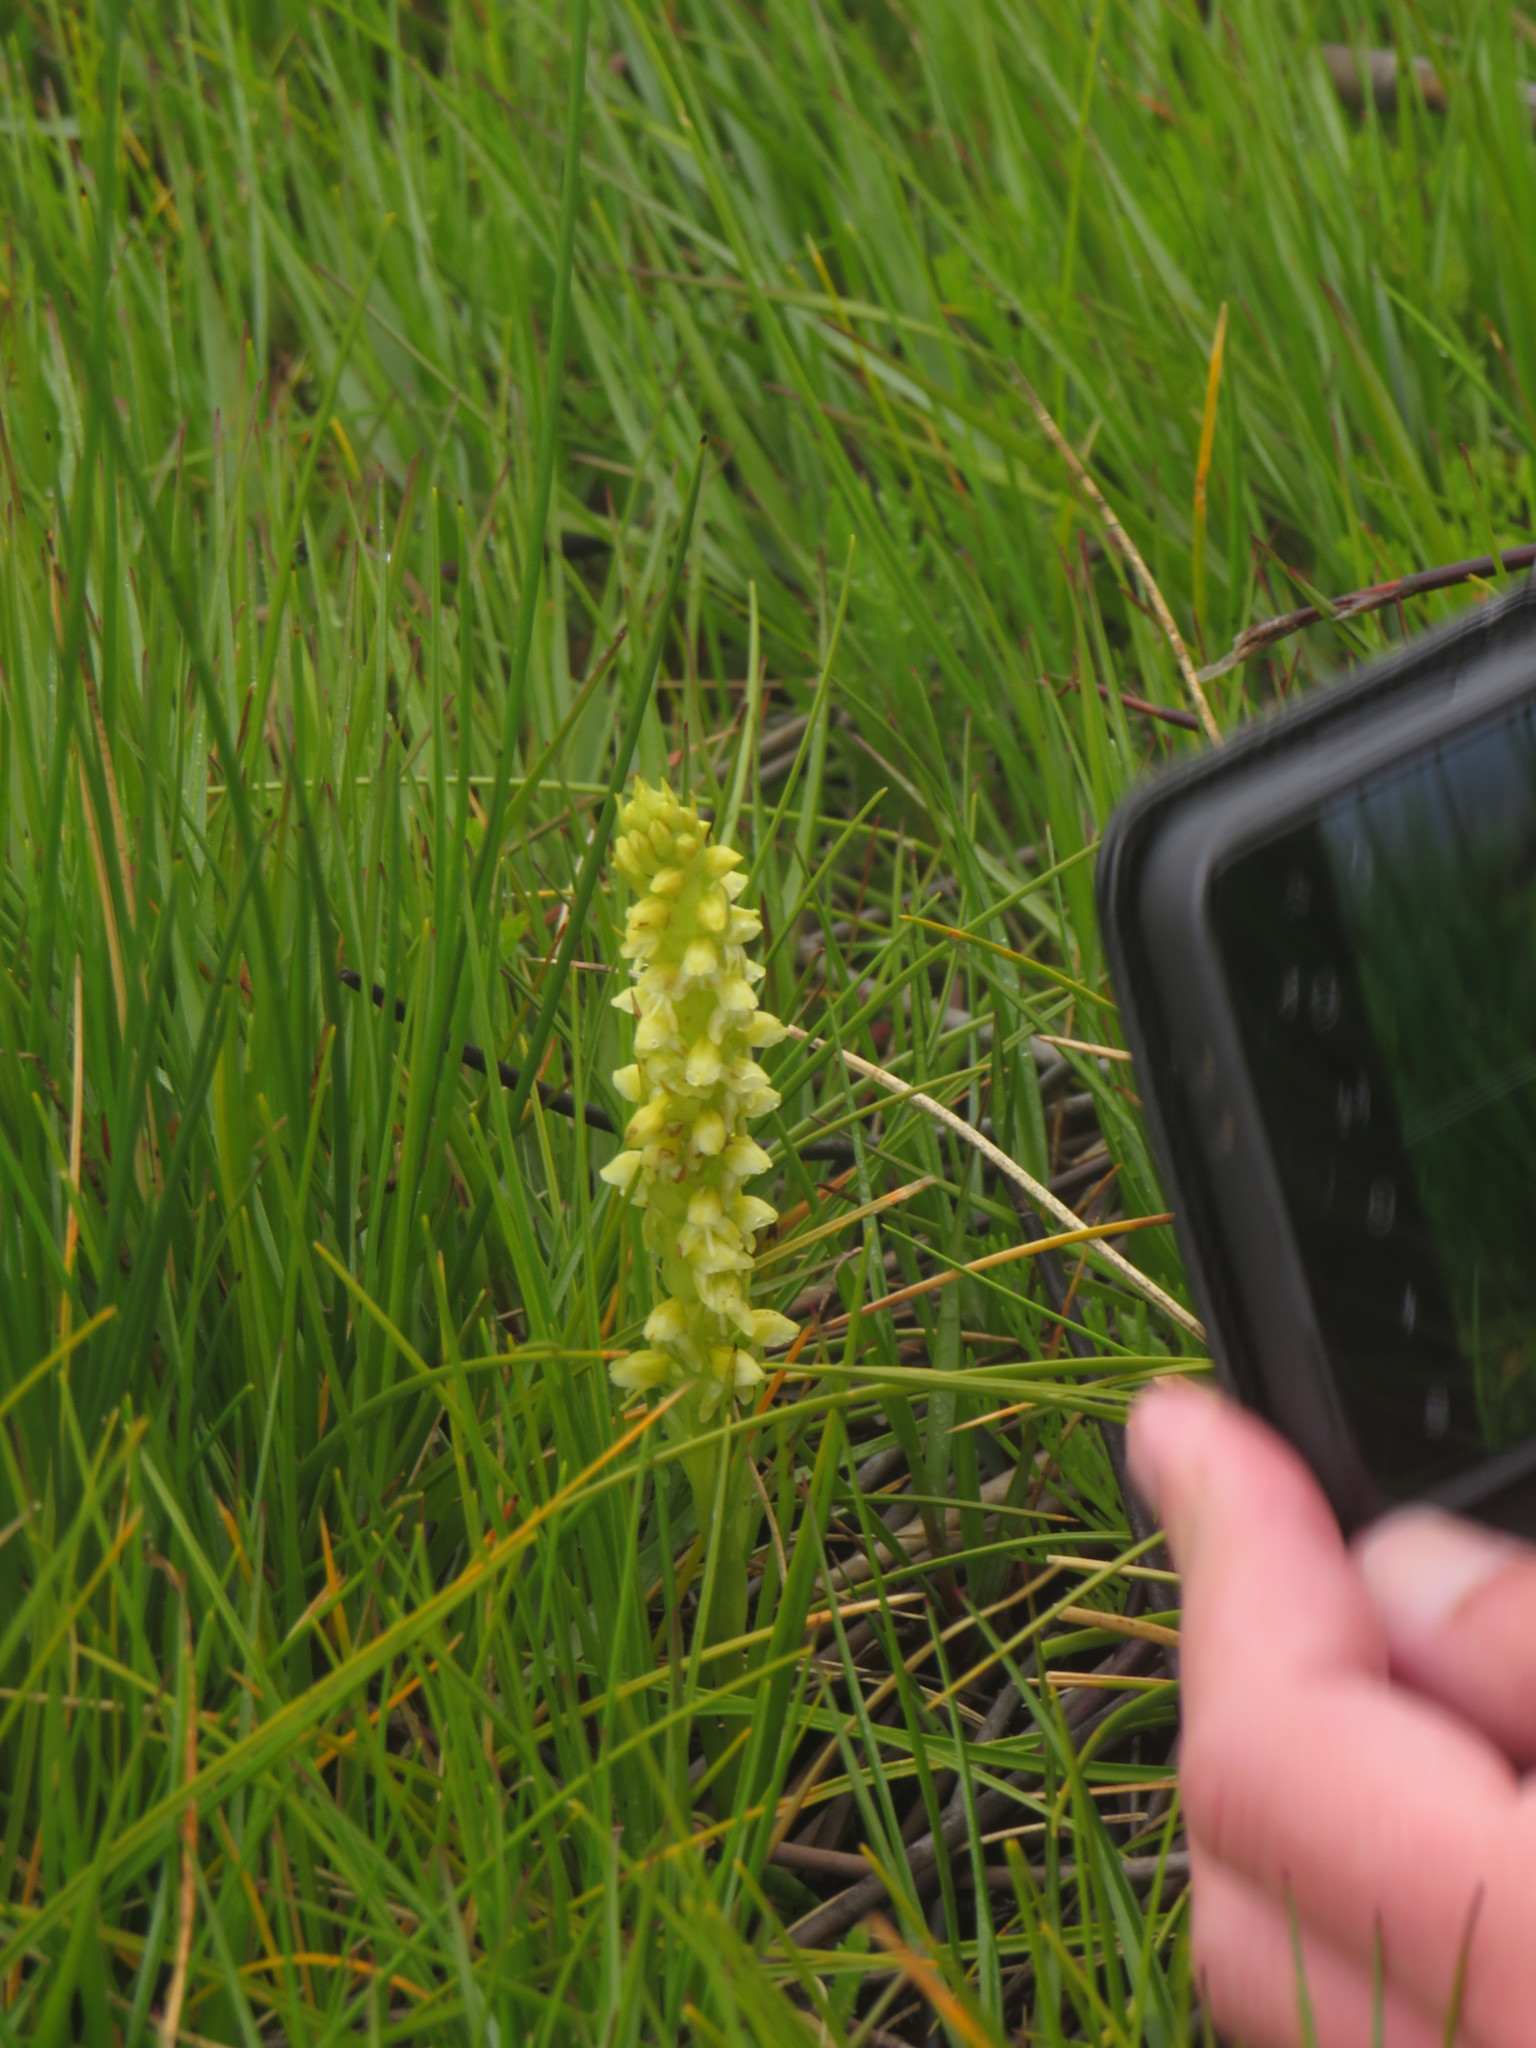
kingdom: Plantae
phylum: Tracheophyta
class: Liliopsida
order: Asparagales
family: Orchidaceae
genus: Disa
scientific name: Disa obtusa
